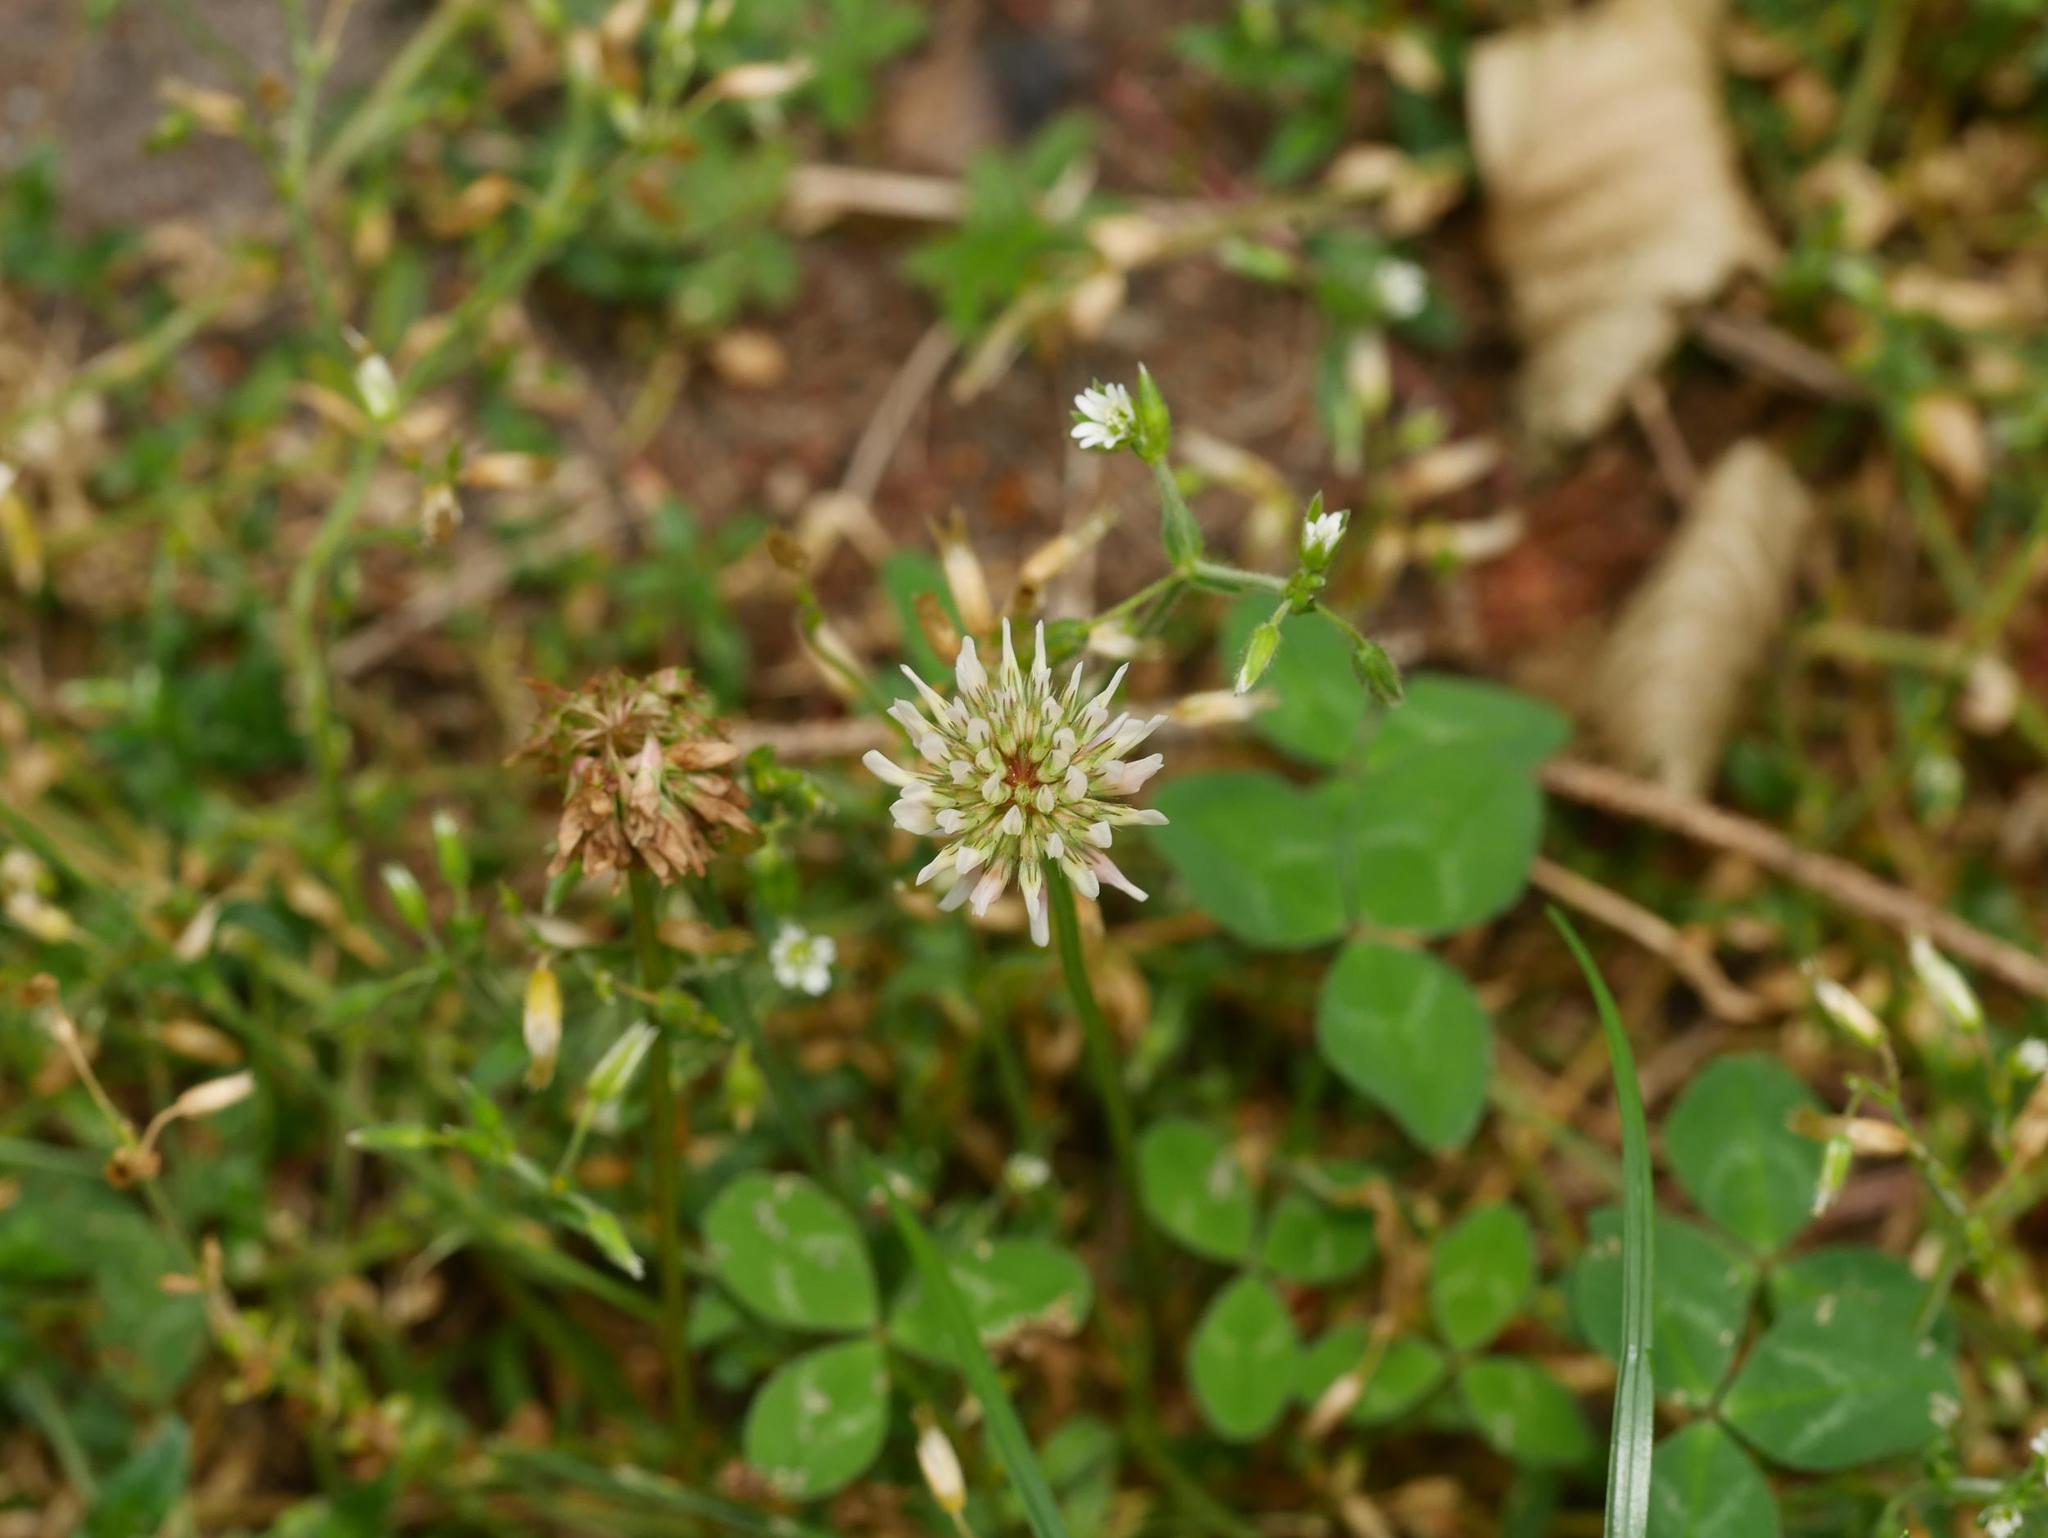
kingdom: Plantae
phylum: Tracheophyta
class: Magnoliopsida
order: Fabales
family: Fabaceae
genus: Trifolium
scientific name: Trifolium repens
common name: White clover
